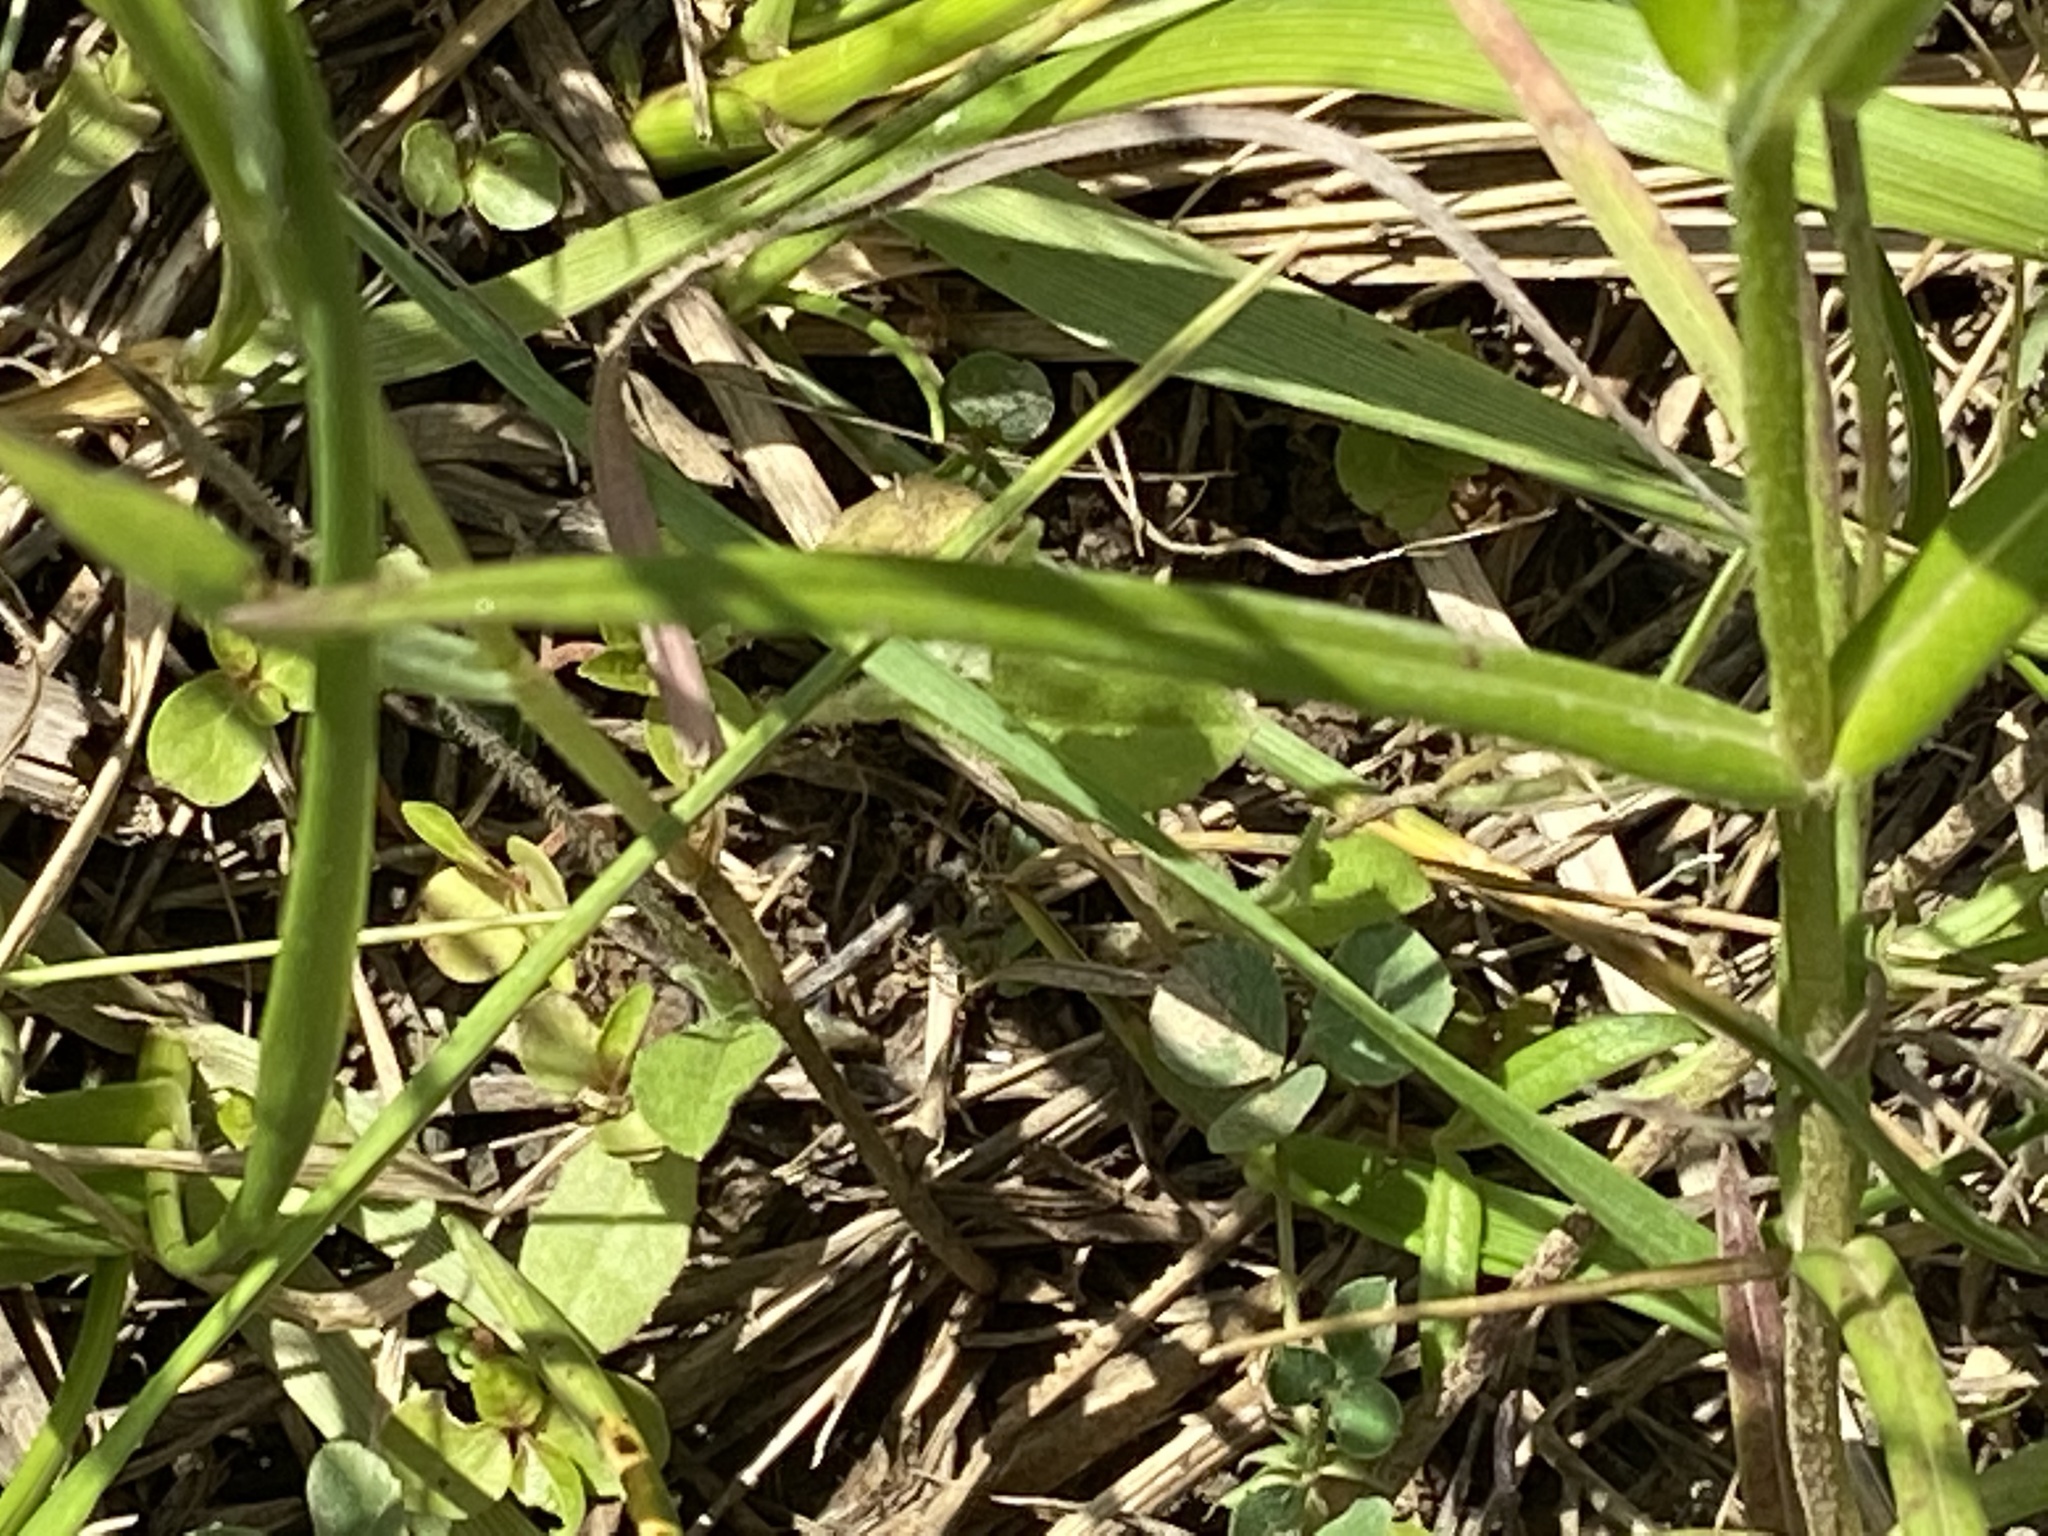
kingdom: Plantae
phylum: Tracheophyta
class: Magnoliopsida
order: Ericales
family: Polemoniaceae
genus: Phlox
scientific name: Phlox pilosa
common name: Prairie phlox
